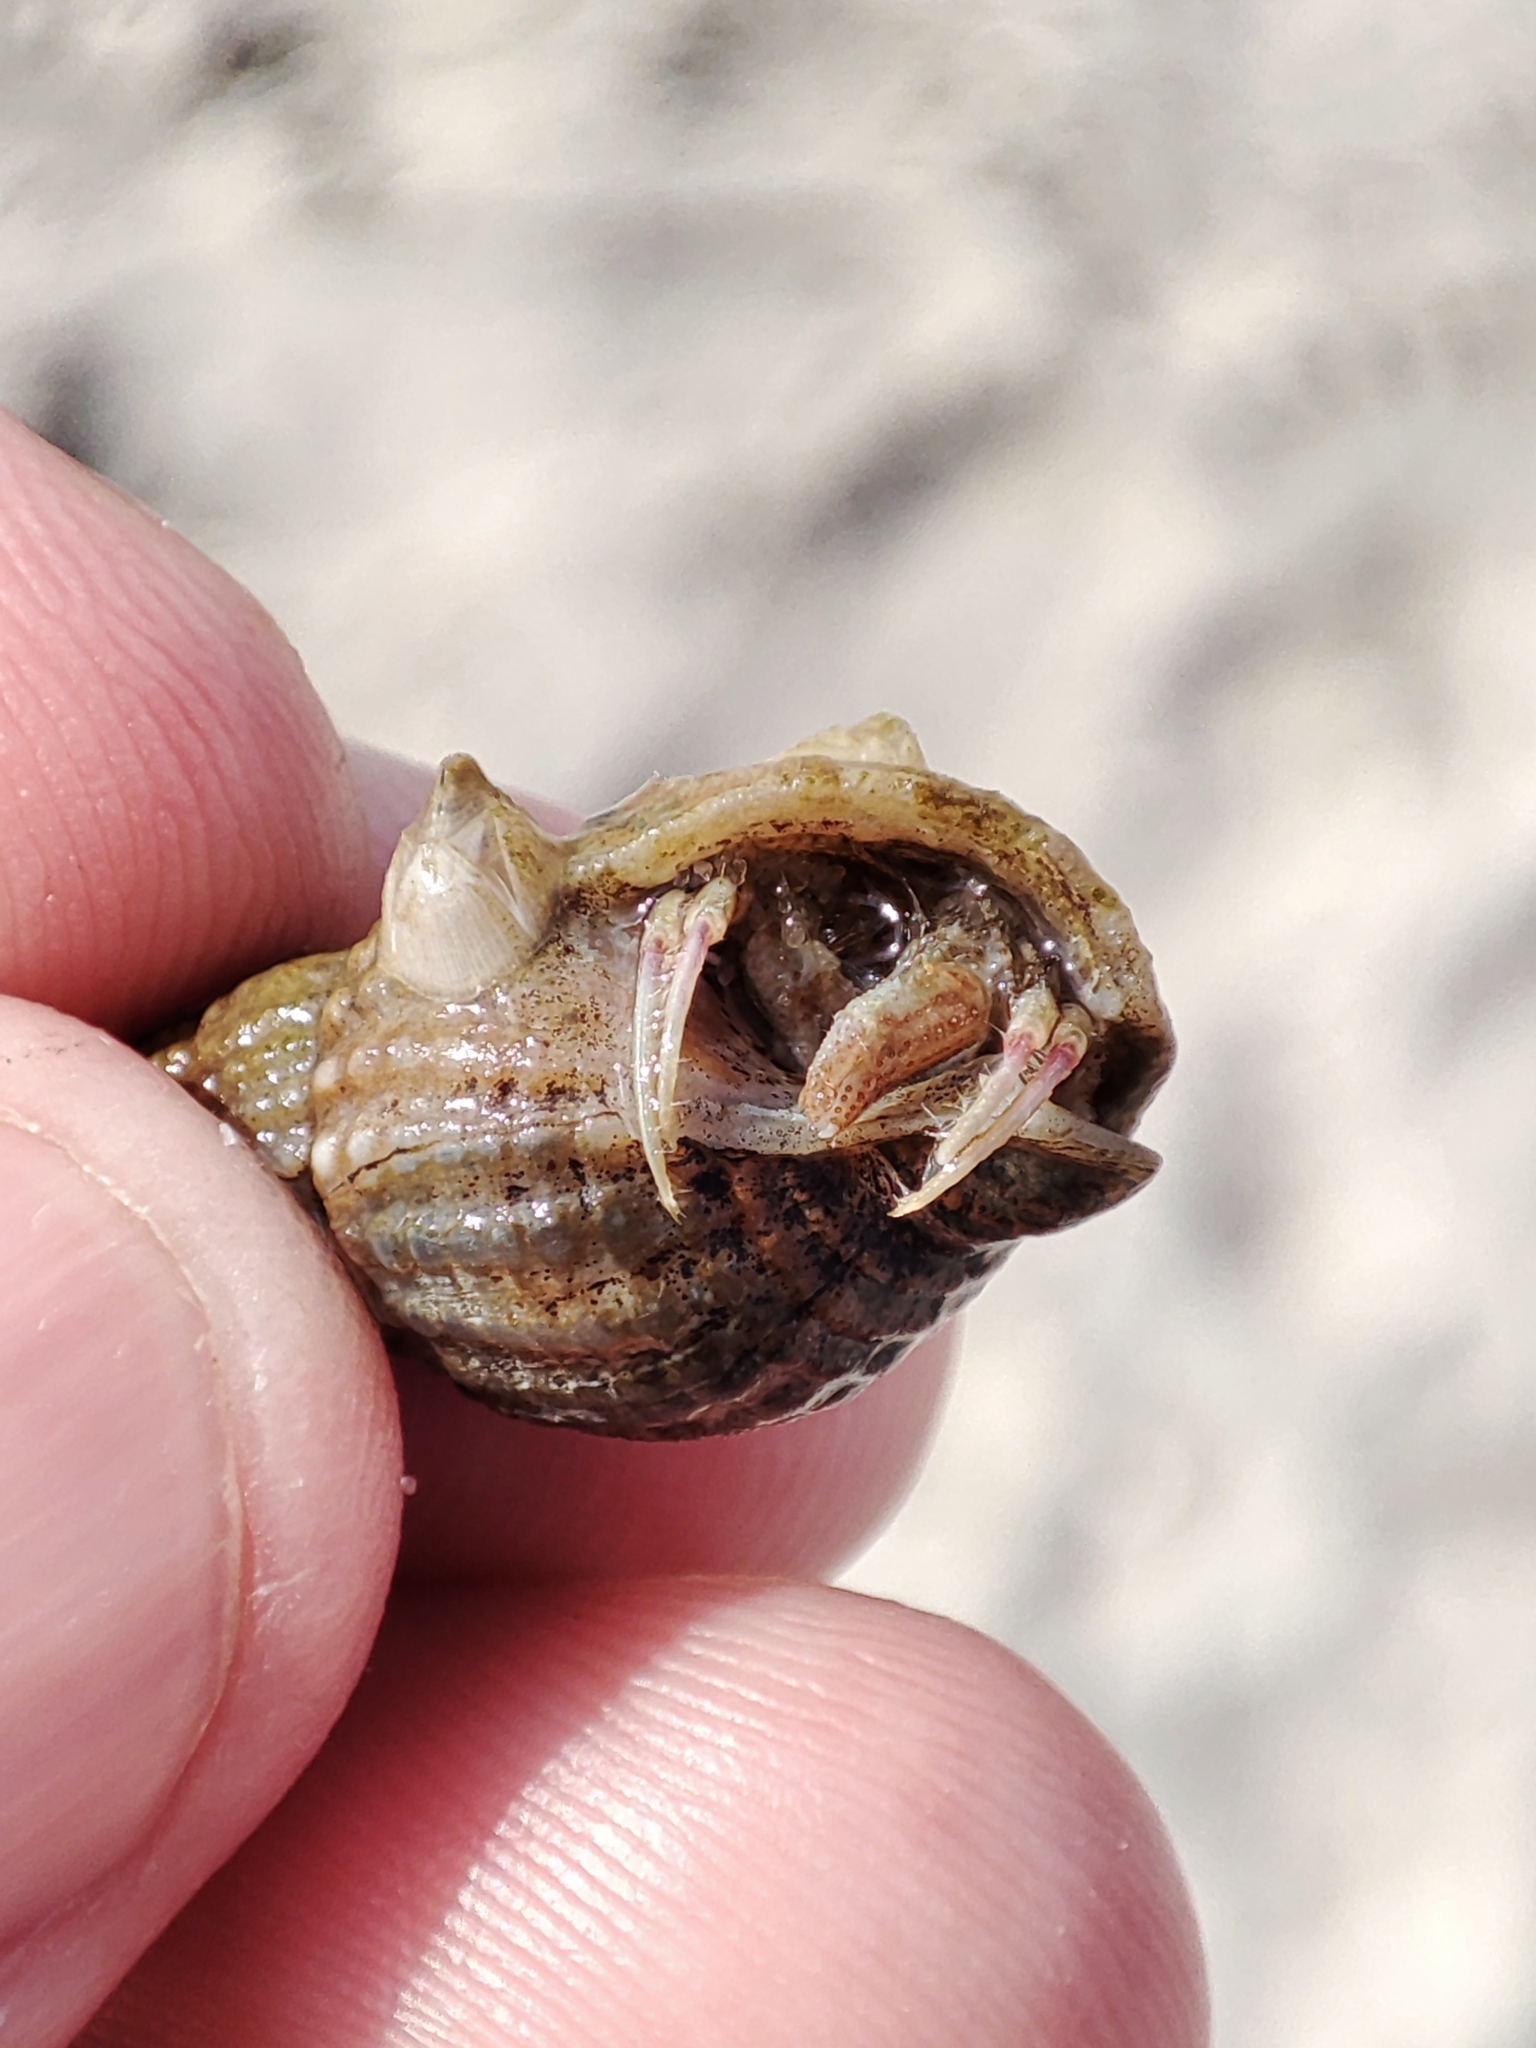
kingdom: Animalia
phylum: Arthropoda
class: Malacostraca
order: Decapoda
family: Diogenidae
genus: Diogenes
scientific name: Diogenes pugilator
